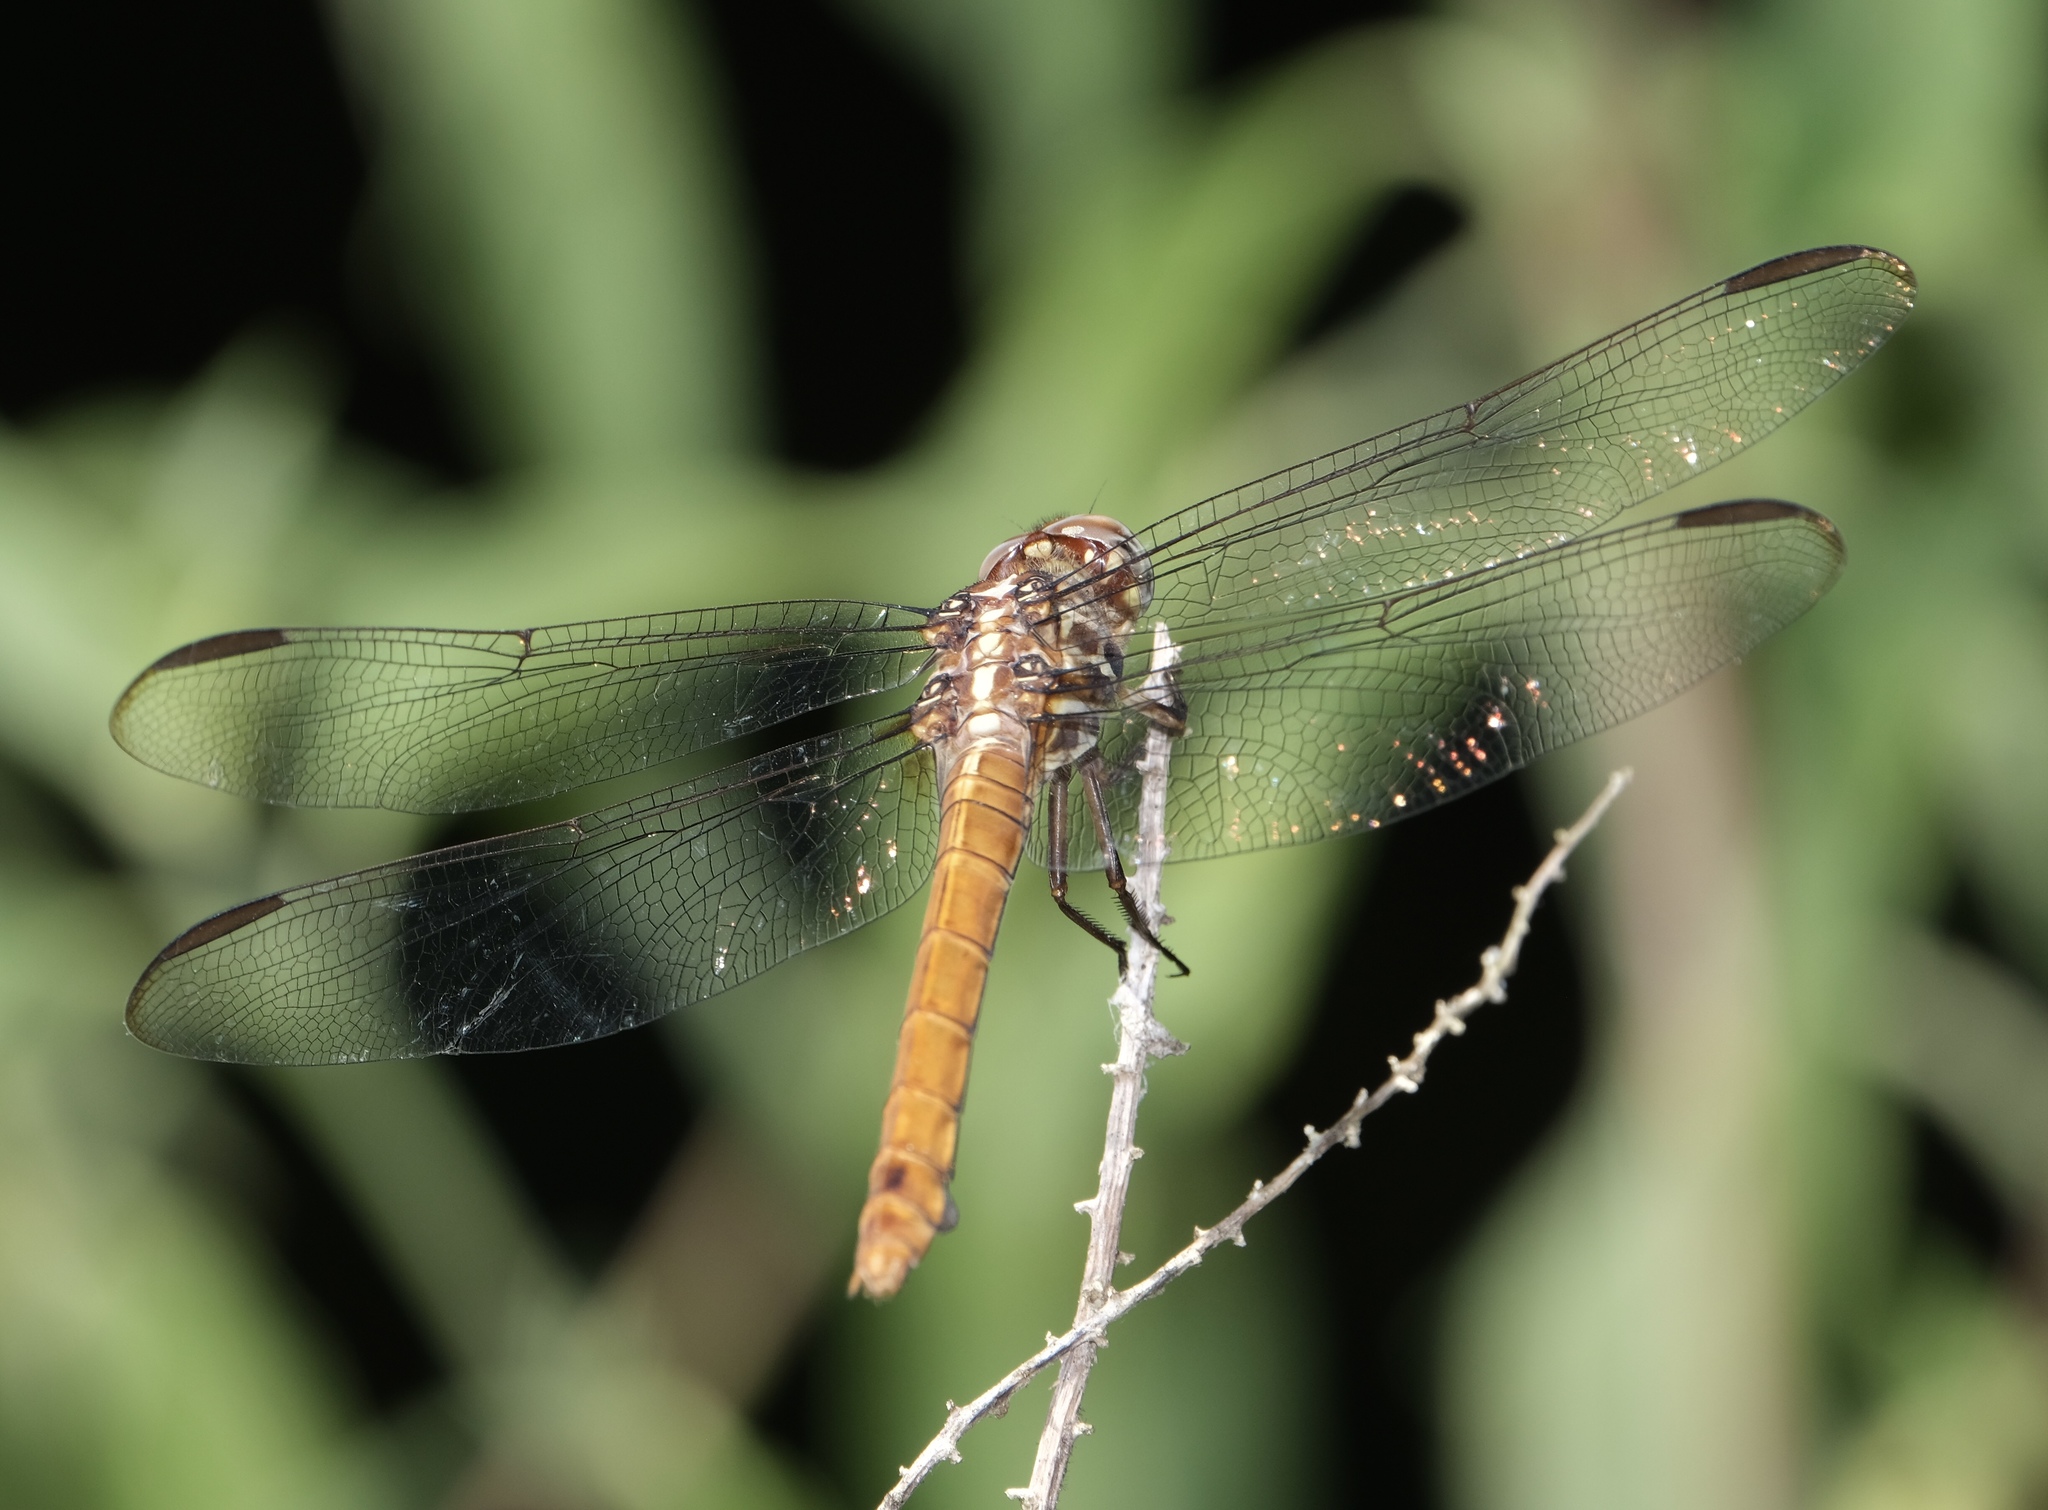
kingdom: Animalia
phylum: Arthropoda
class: Insecta
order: Odonata
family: Libellulidae
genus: Orthemis
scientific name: Orthemis ferruginea
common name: Roseate skimmer
